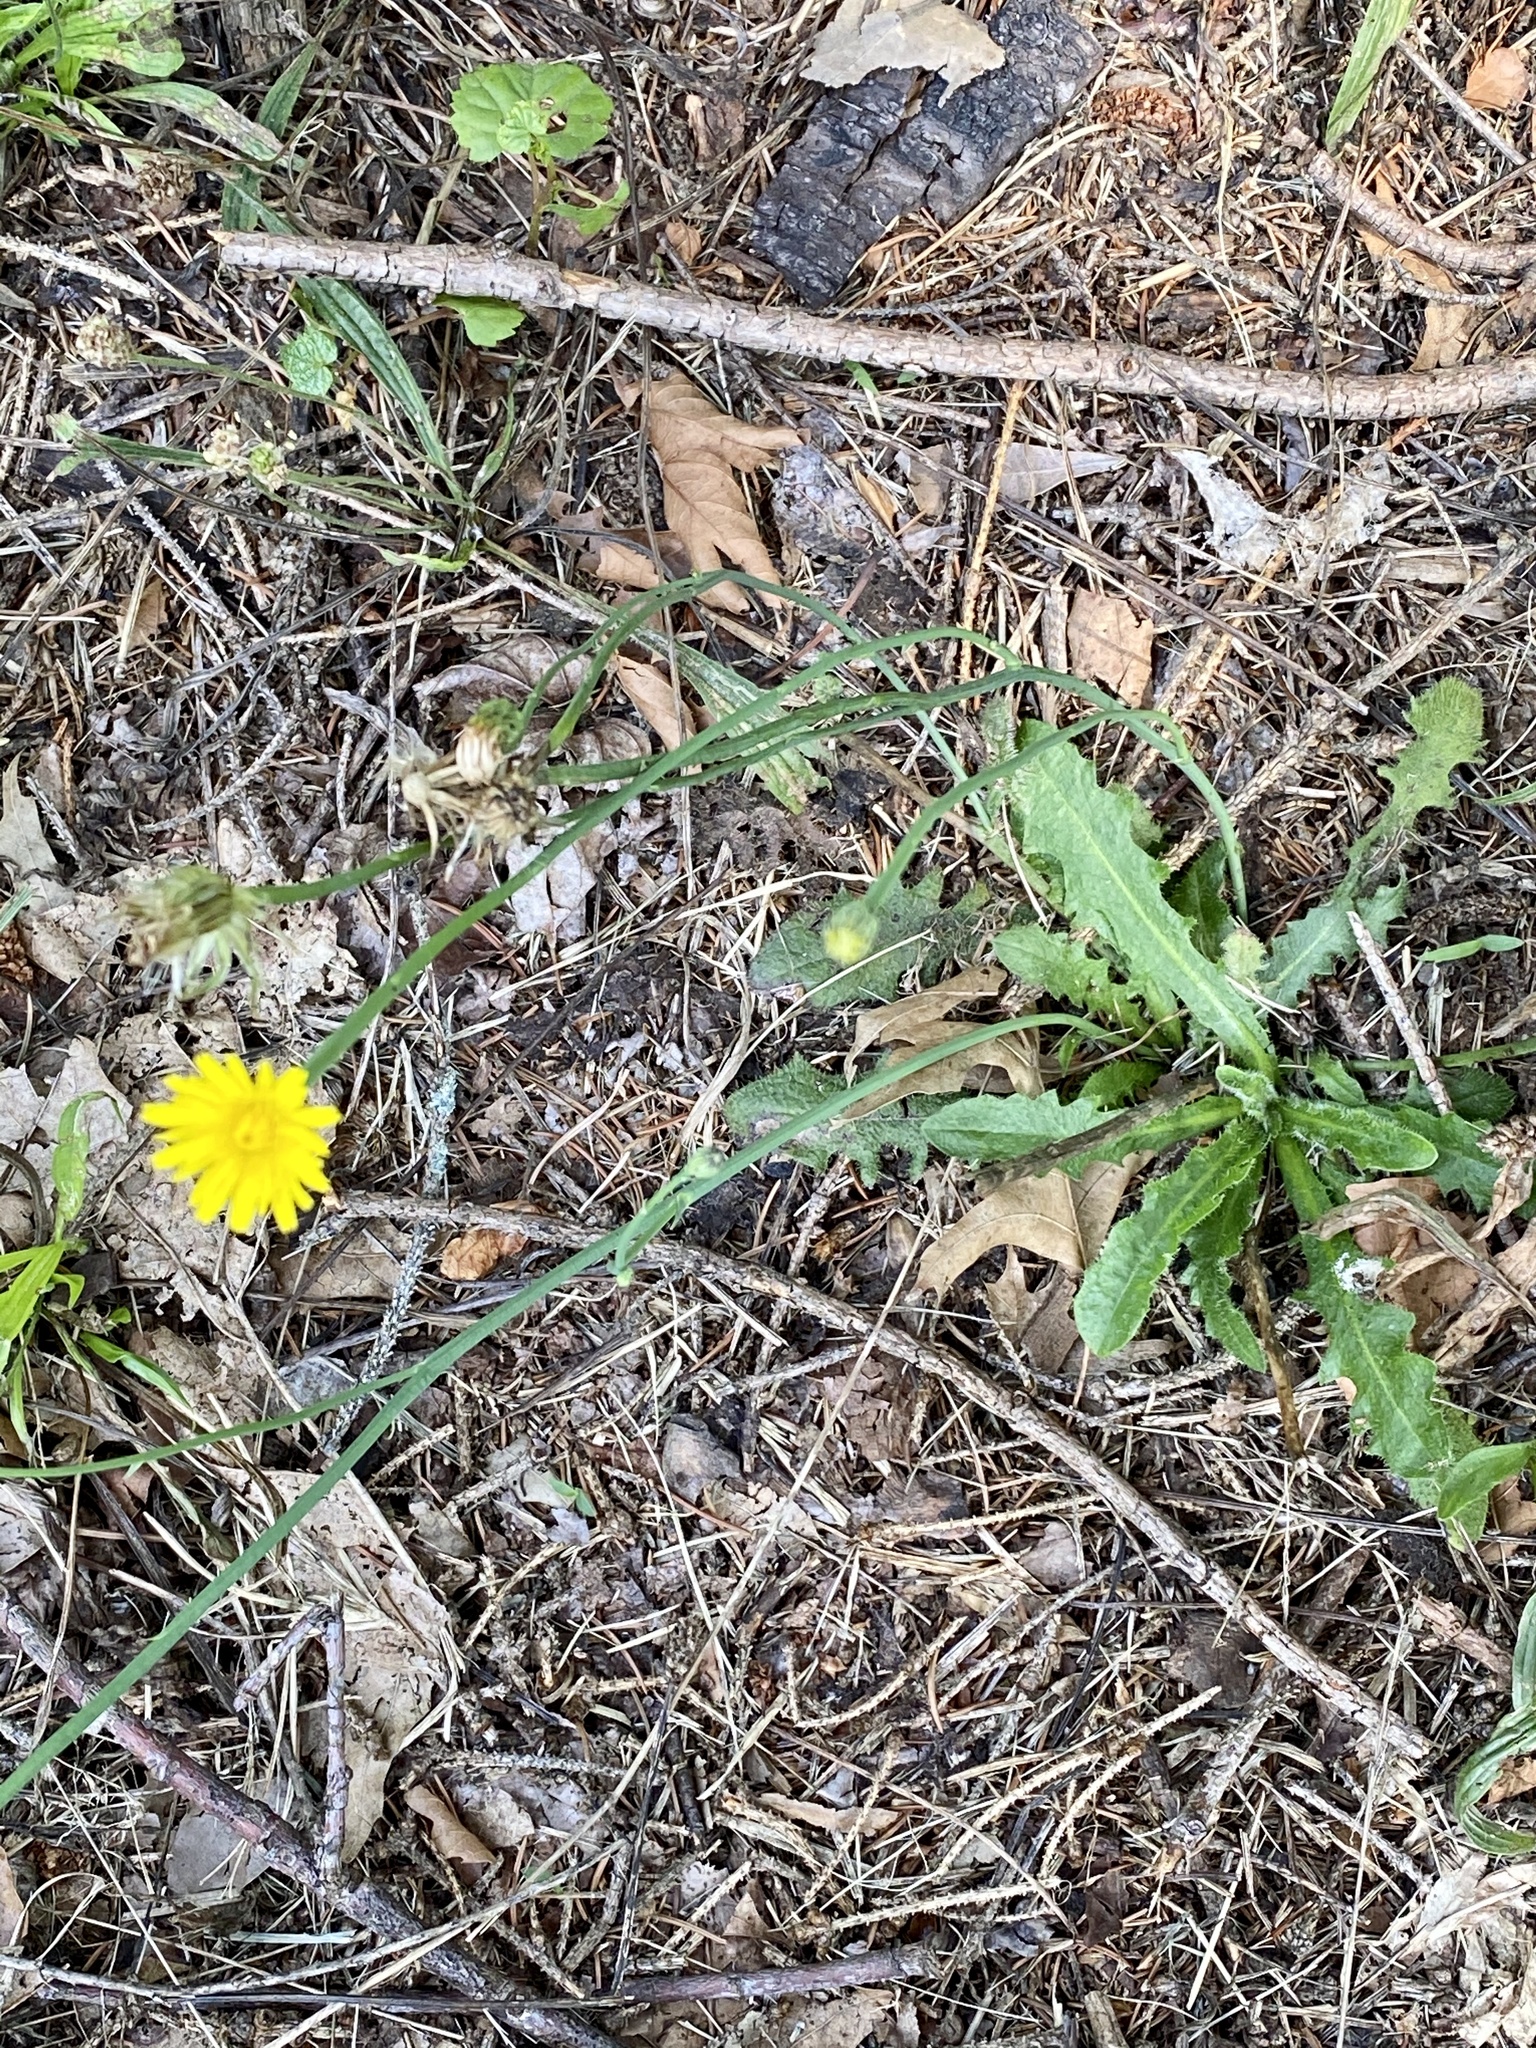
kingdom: Plantae
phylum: Tracheophyta
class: Magnoliopsida
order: Asterales
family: Asteraceae
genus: Hypochaeris
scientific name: Hypochaeris radicata
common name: Flatweed
